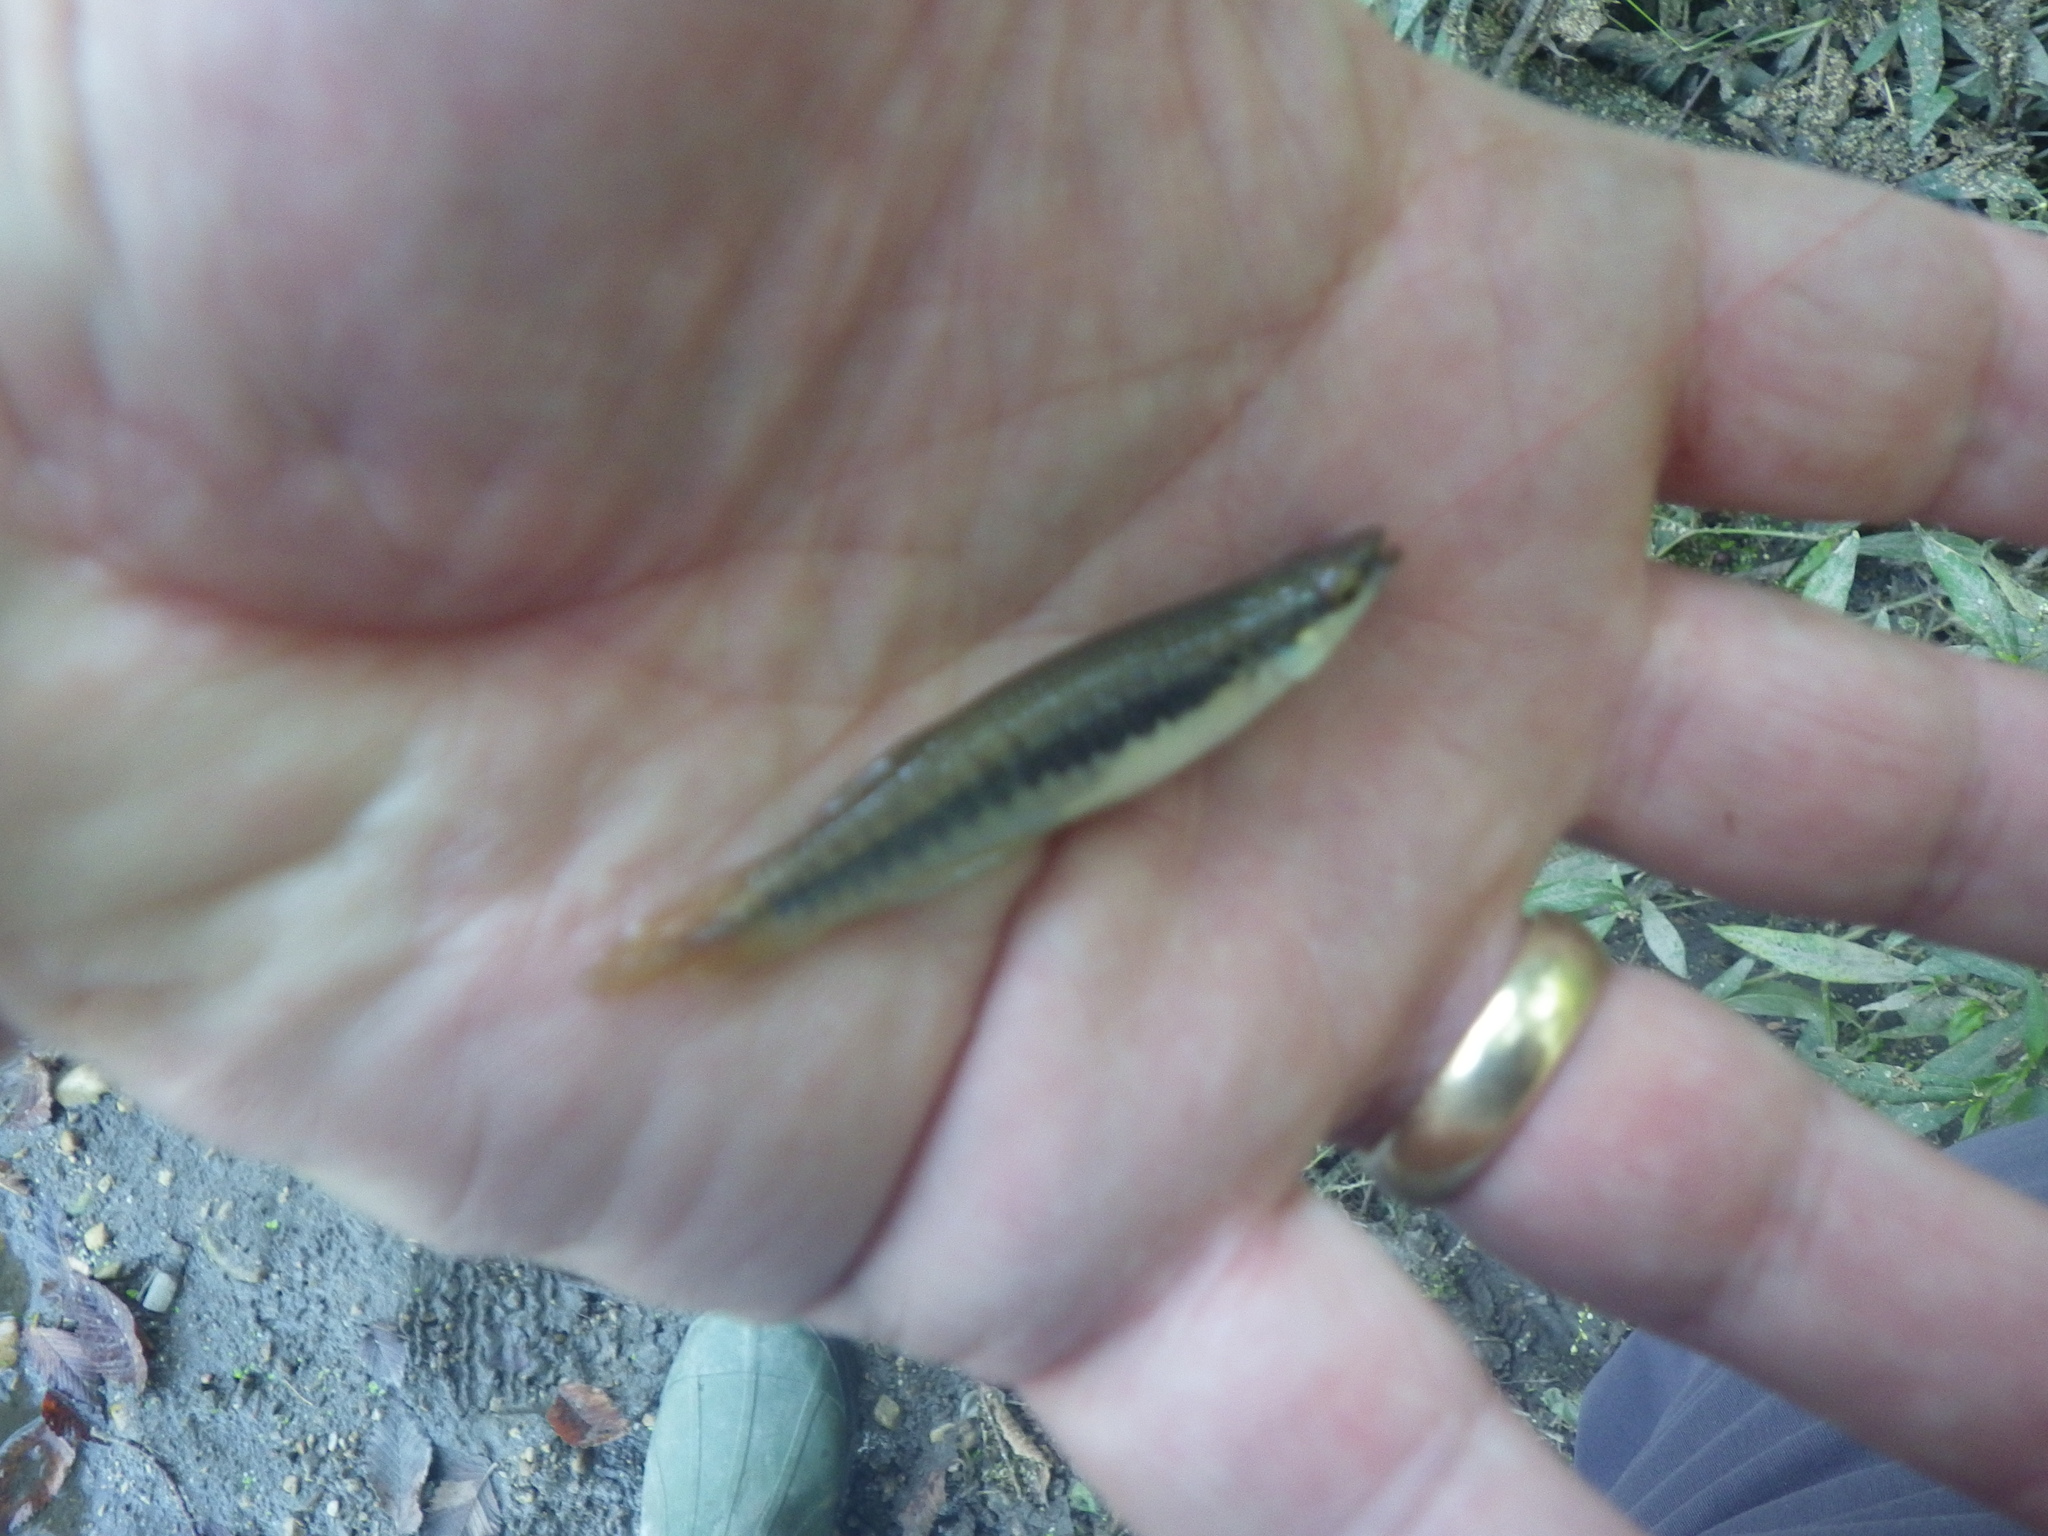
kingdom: Animalia
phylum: Chordata
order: Cyprinodontiformes
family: Fundulidae
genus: Fundulus
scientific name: Fundulus notatus
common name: Blackstripe topminnow
